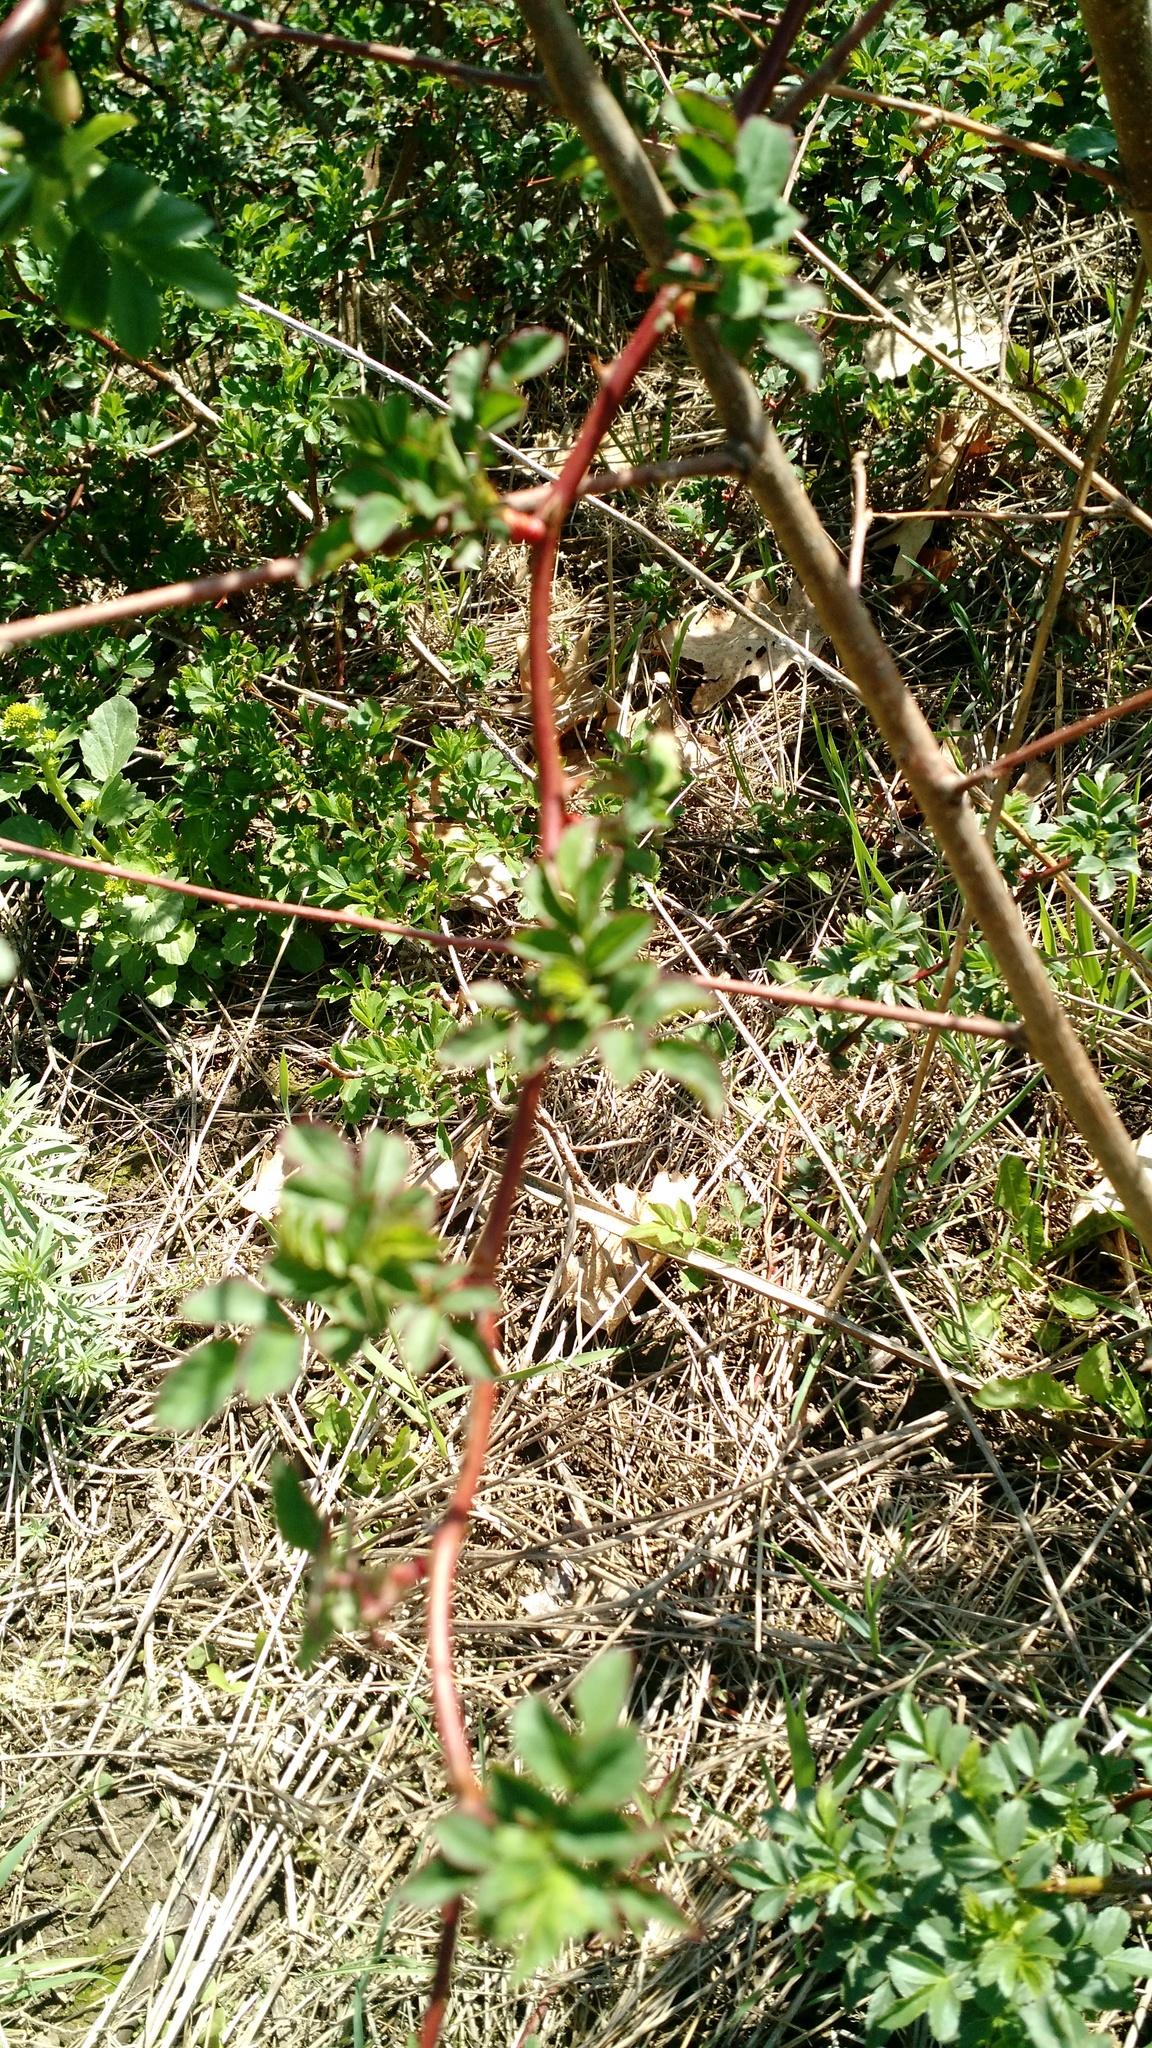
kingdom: Plantae
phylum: Tracheophyta
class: Magnoliopsida
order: Rosales
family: Rosaceae
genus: Rosa
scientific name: Rosa multiflora
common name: Multiflora rose
